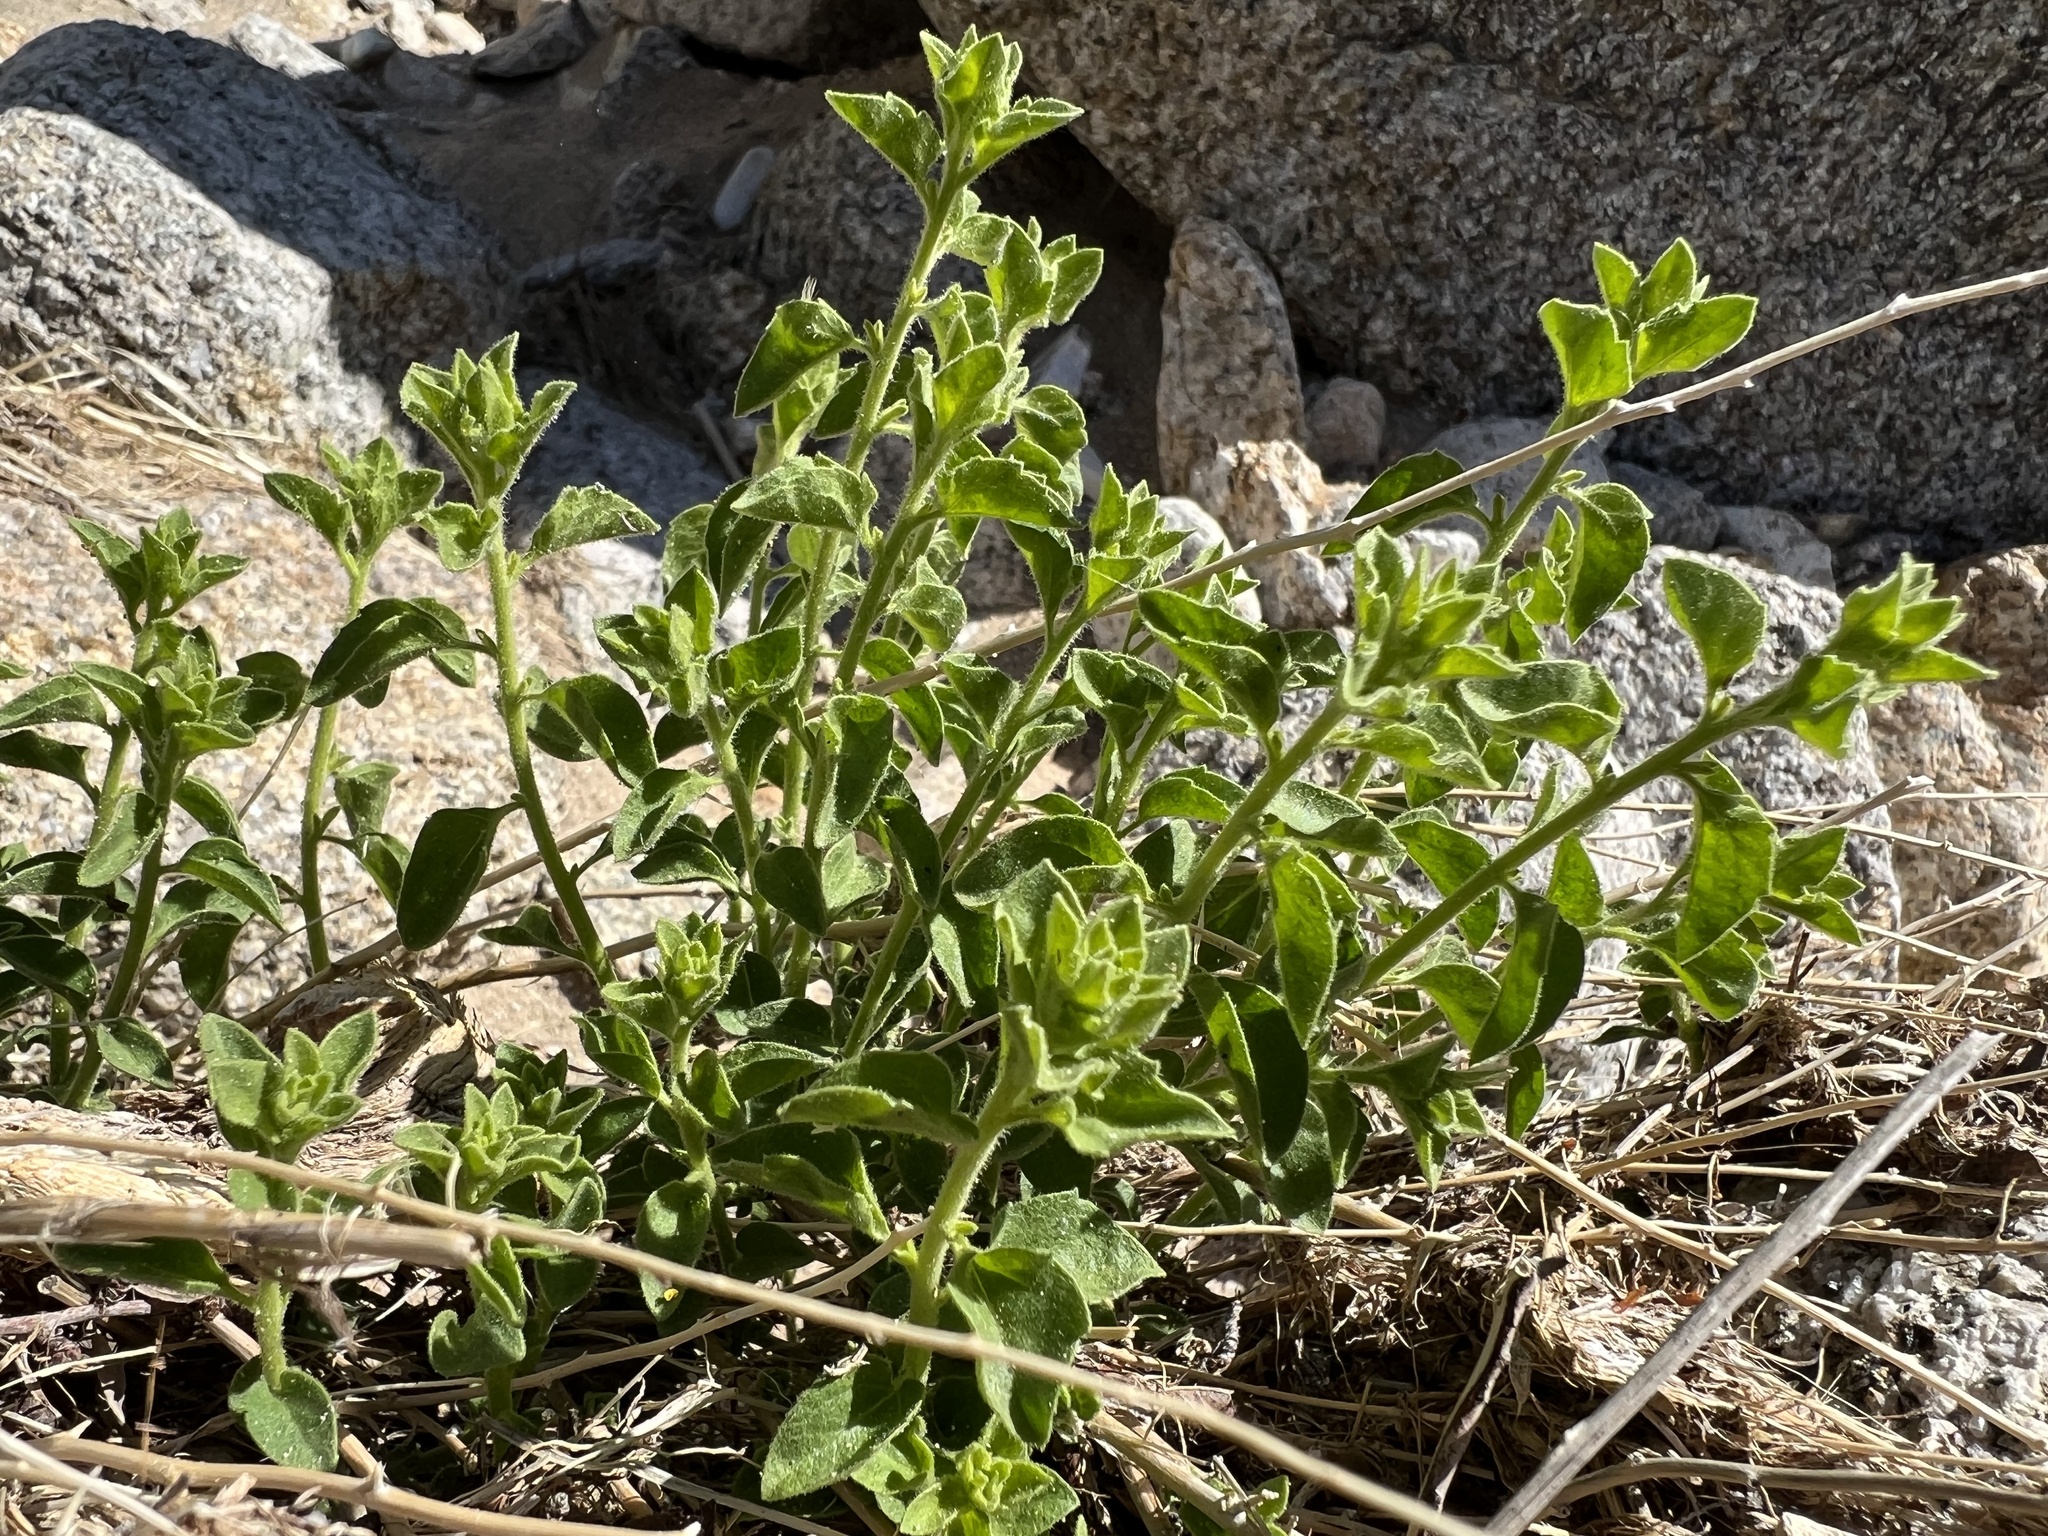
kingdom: Plantae
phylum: Tracheophyta
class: Magnoliopsida
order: Asterales
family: Asteraceae
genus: Brickellia
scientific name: Brickellia microphylla
